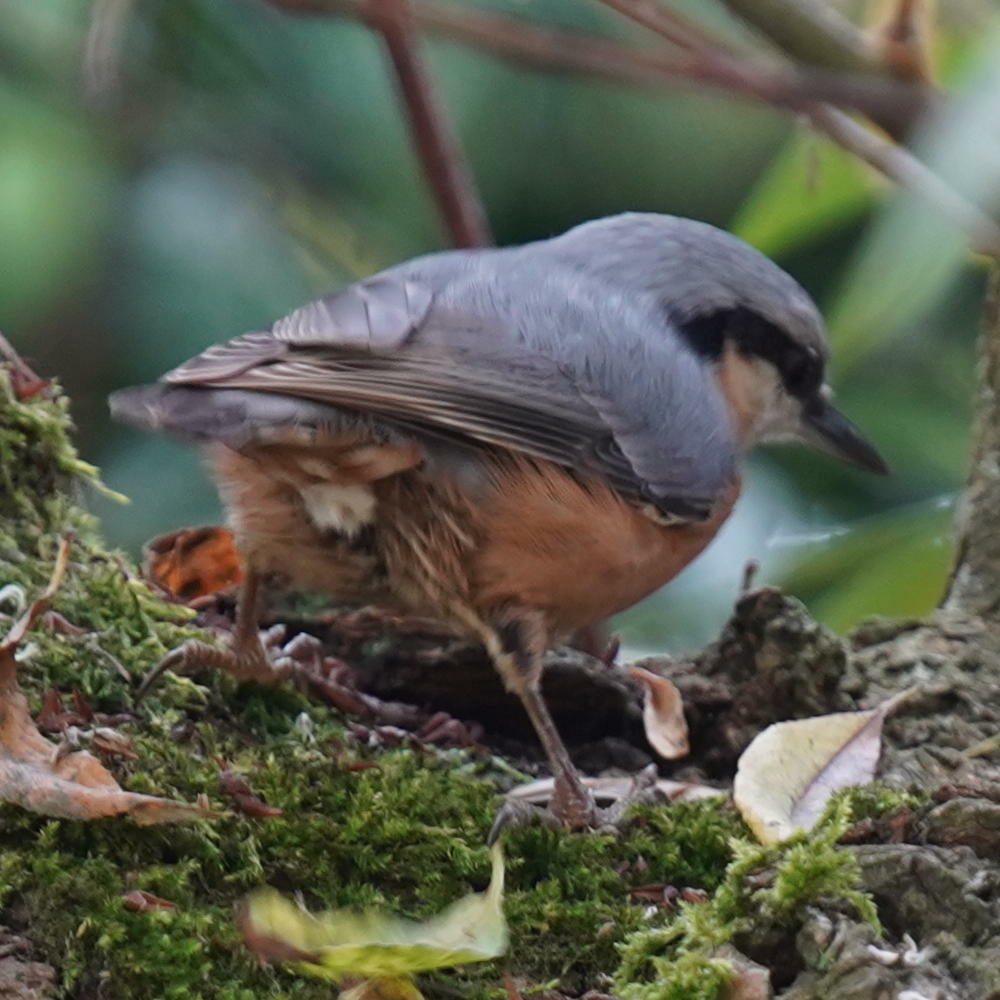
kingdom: Animalia
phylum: Chordata
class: Aves
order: Passeriformes
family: Sittidae
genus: Sitta
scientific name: Sitta europaea
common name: Eurasian nuthatch
